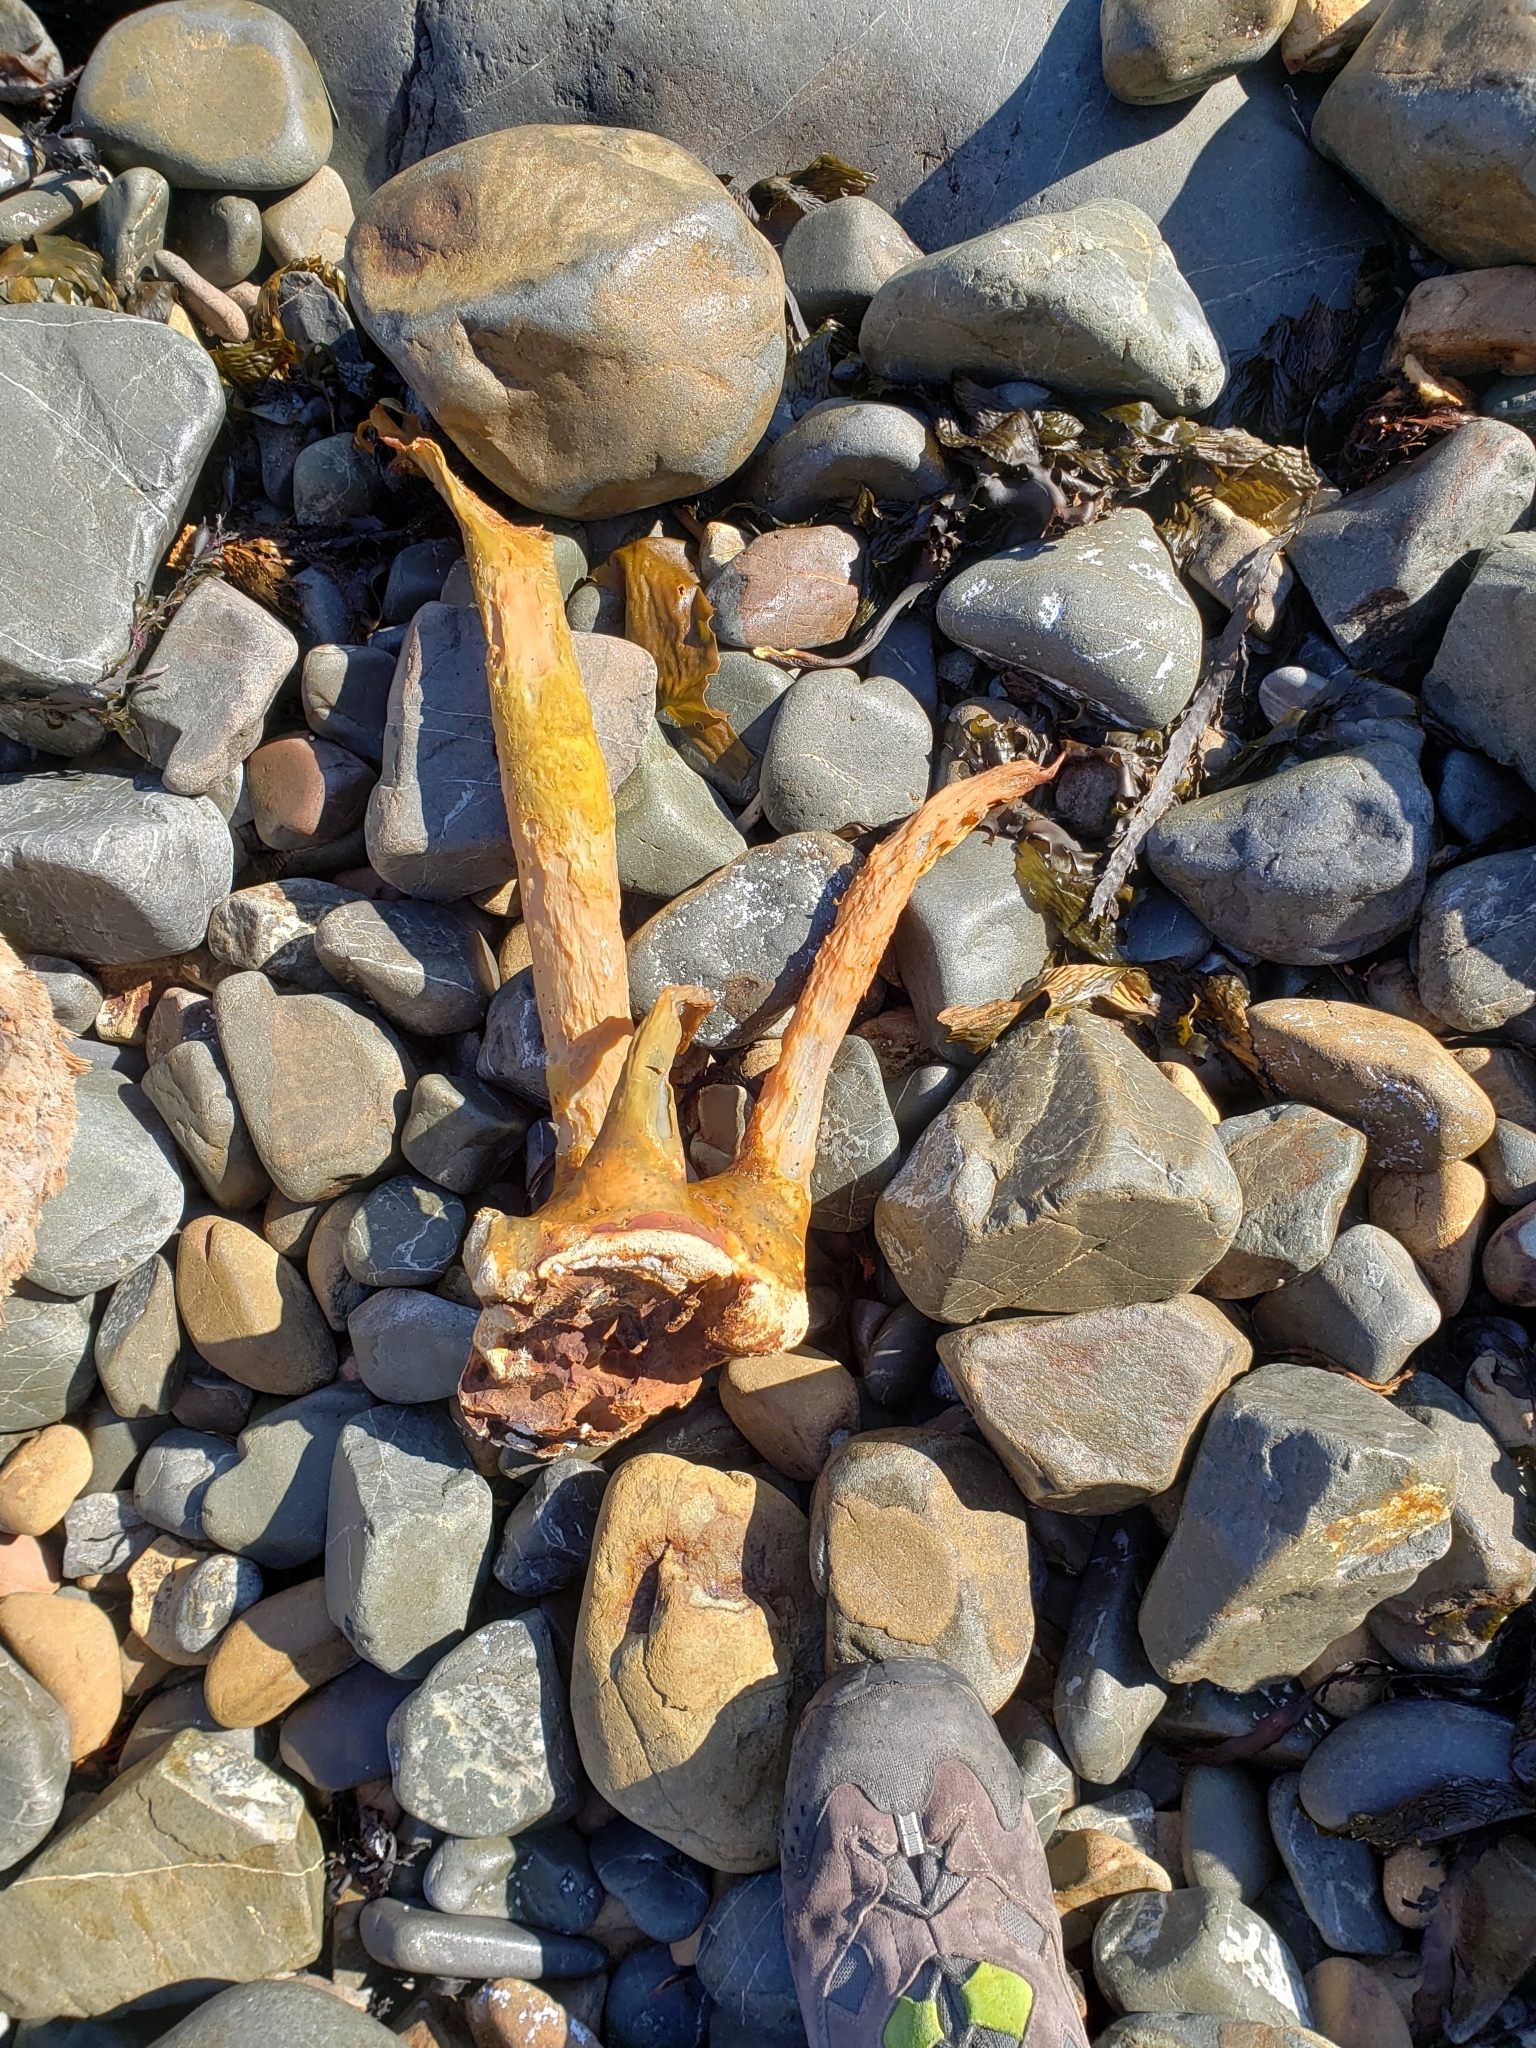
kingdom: Chromista
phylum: Ochrophyta
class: Phaeophyceae
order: Fucales
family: Durvillaeaceae
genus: Durvillaea
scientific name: Durvillaea antarctica
